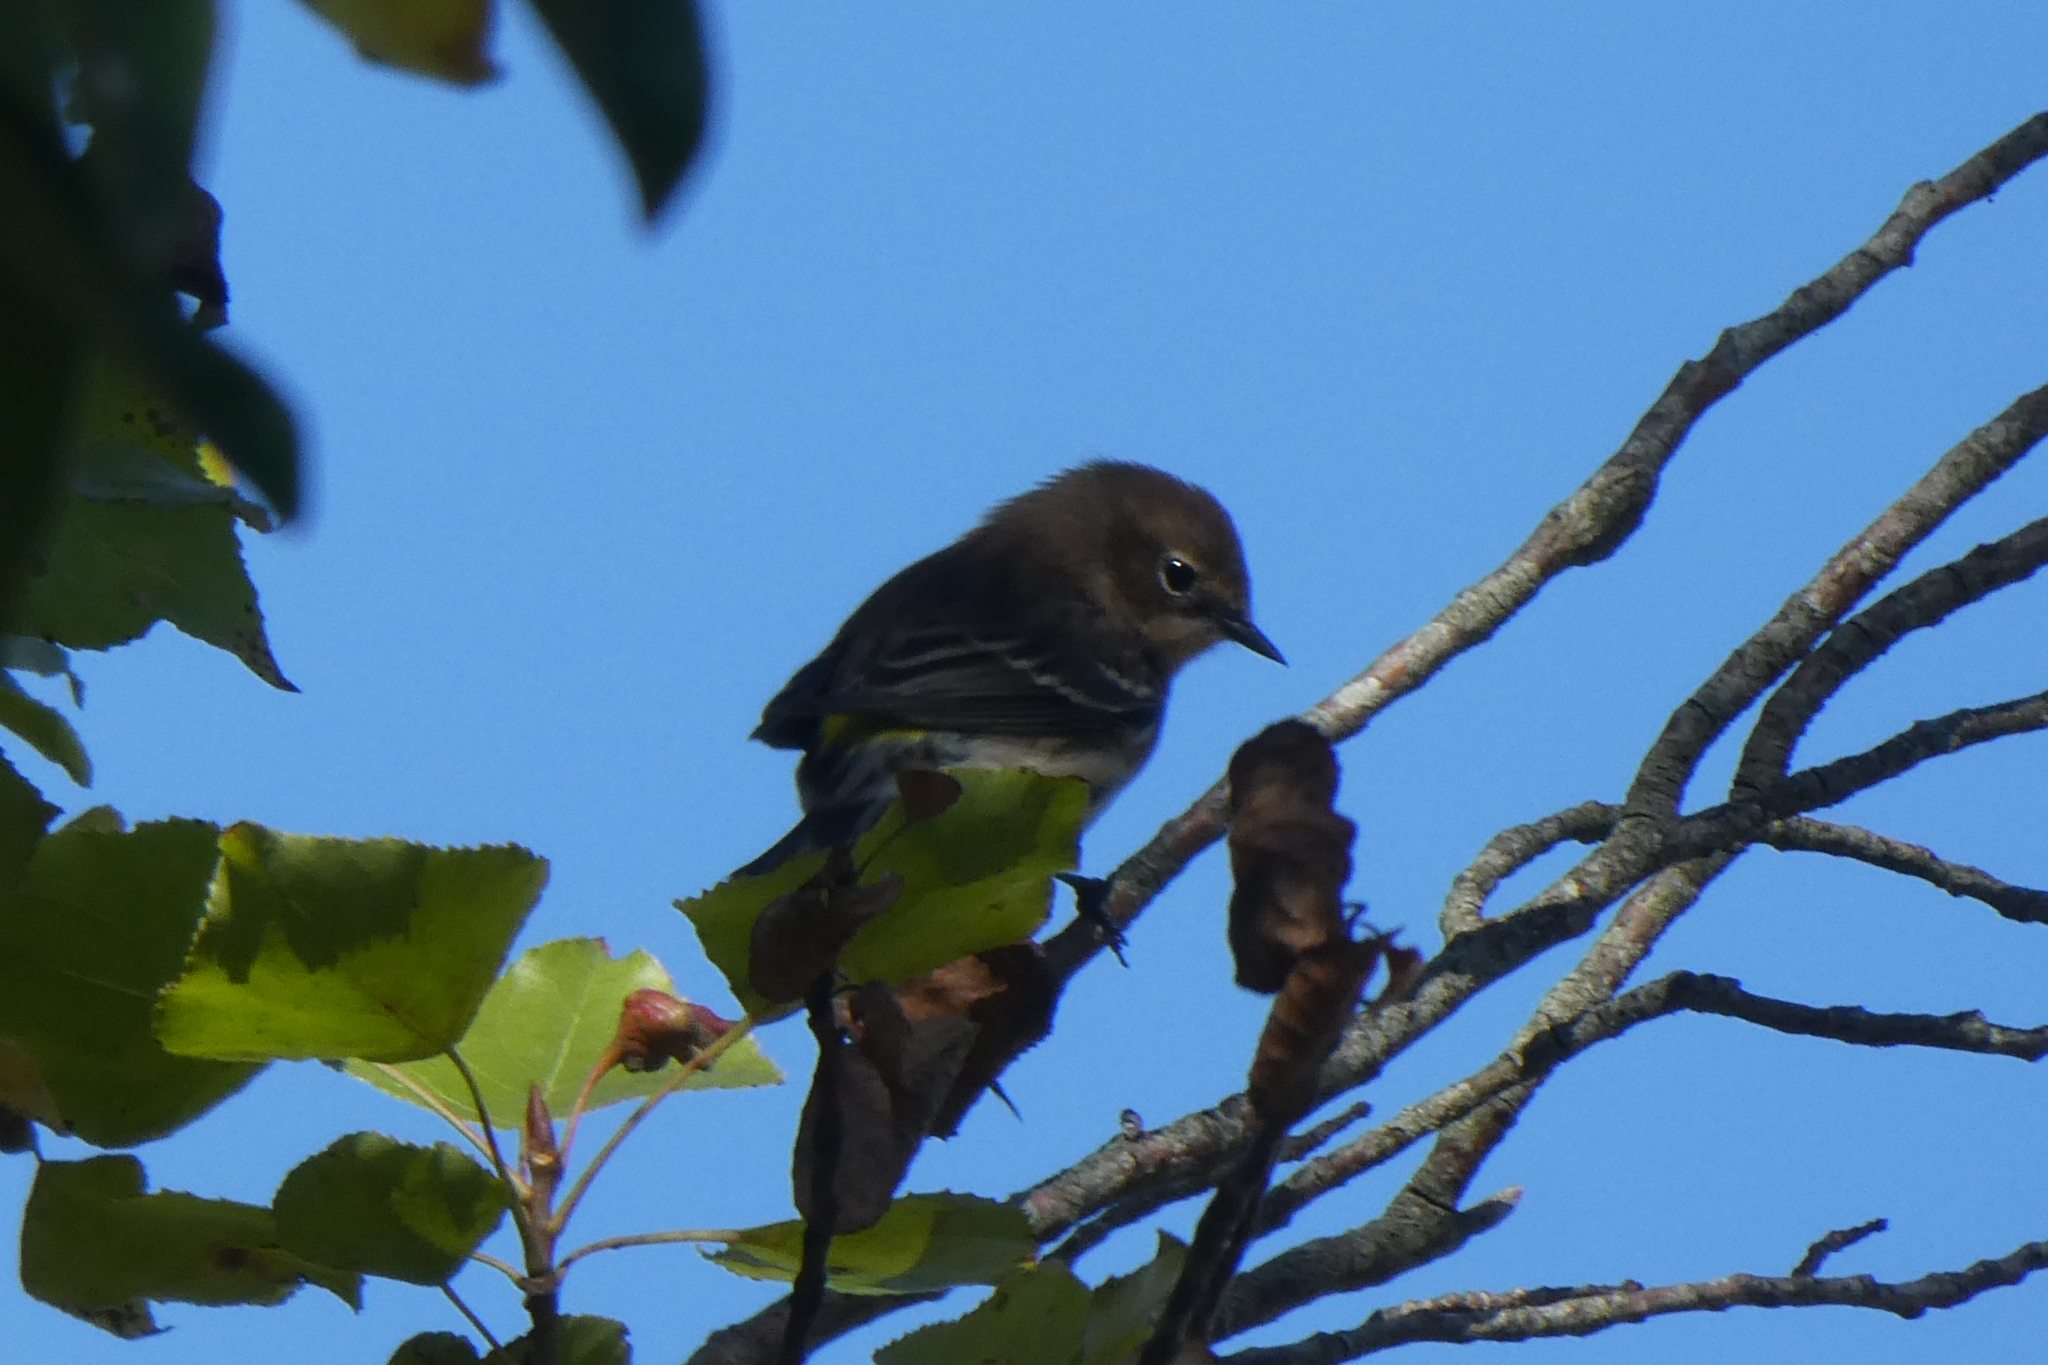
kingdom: Animalia
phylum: Chordata
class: Aves
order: Passeriformes
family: Parulidae
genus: Setophaga
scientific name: Setophaga coronata
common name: Myrtle warbler
